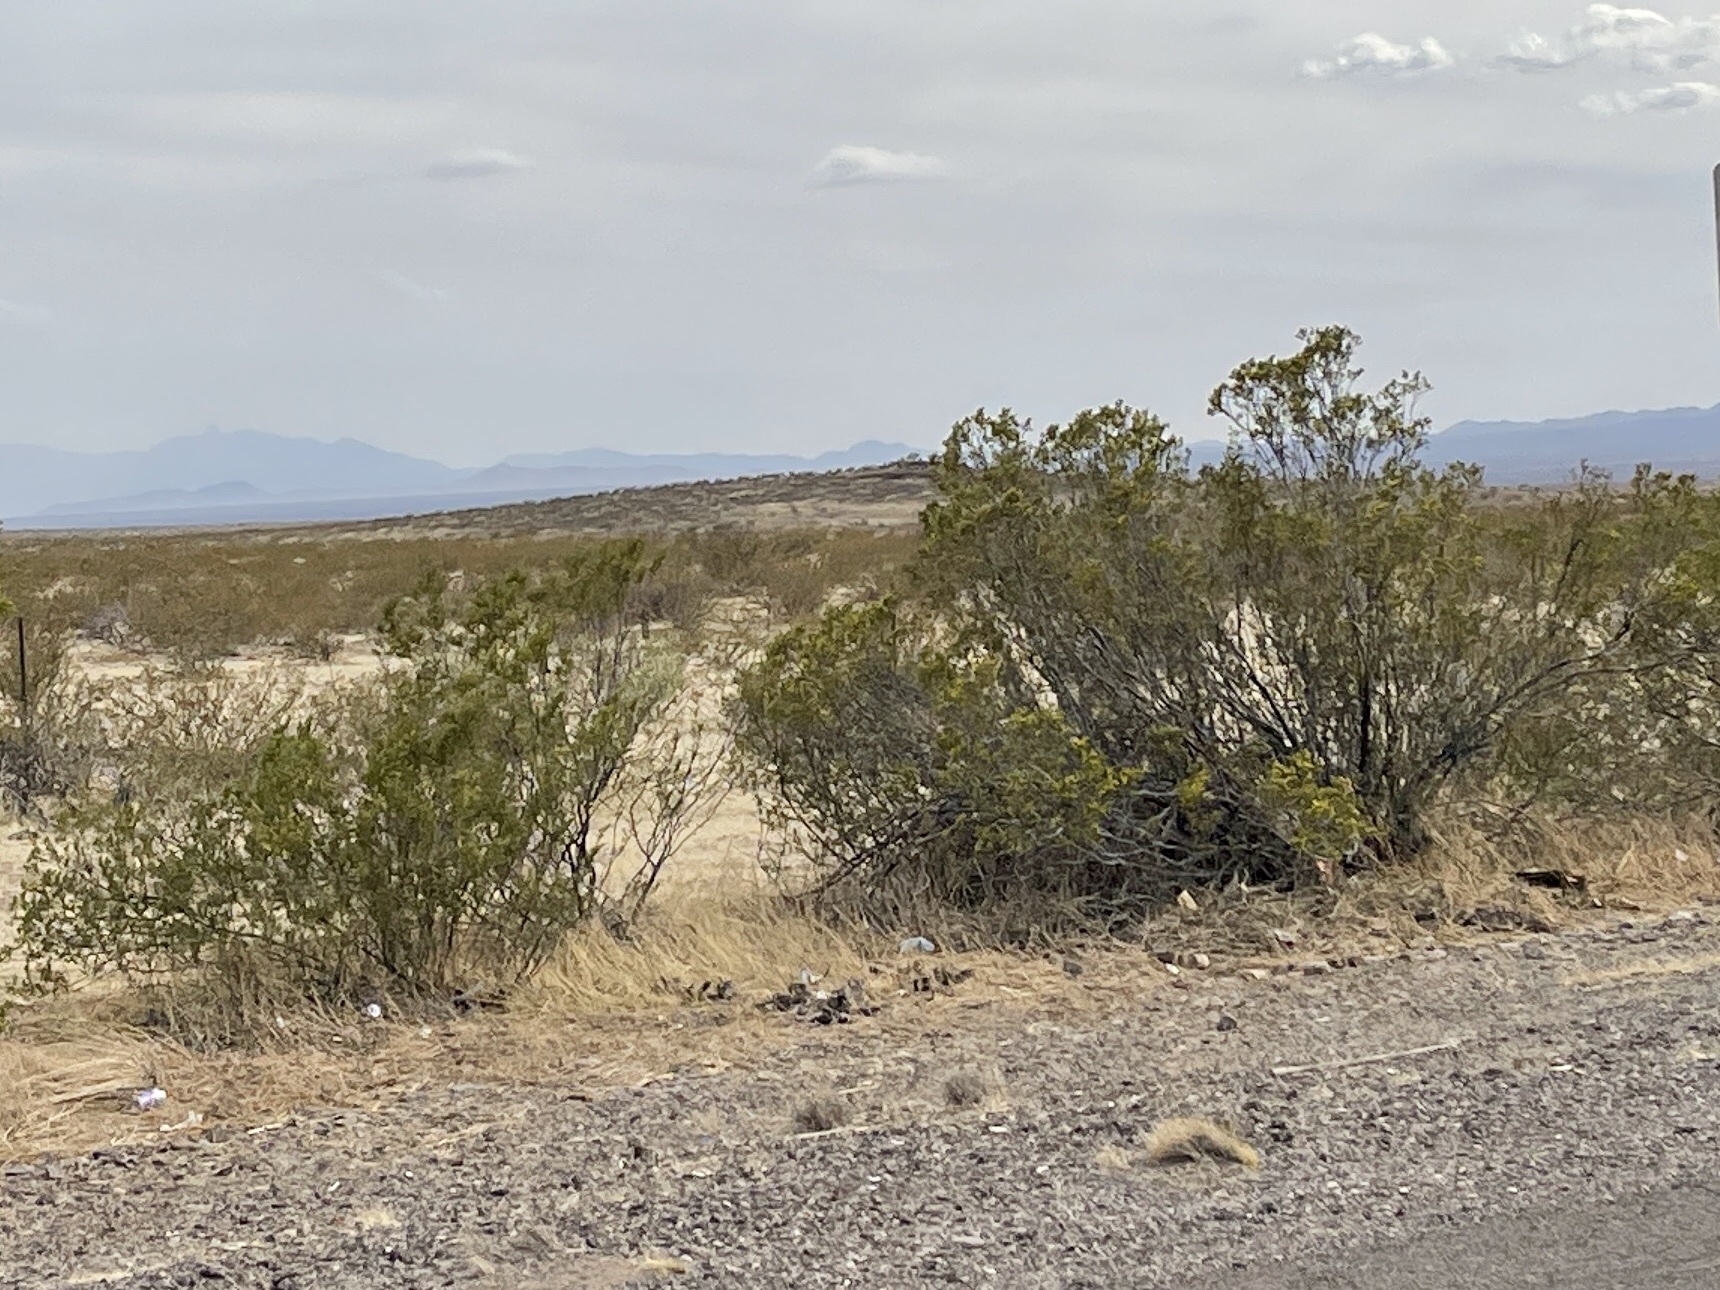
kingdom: Plantae
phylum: Tracheophyta
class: Magnoliopsida
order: Zygophyllales
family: Zygophyllaceae
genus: Larrea
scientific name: Larrea tridentata
